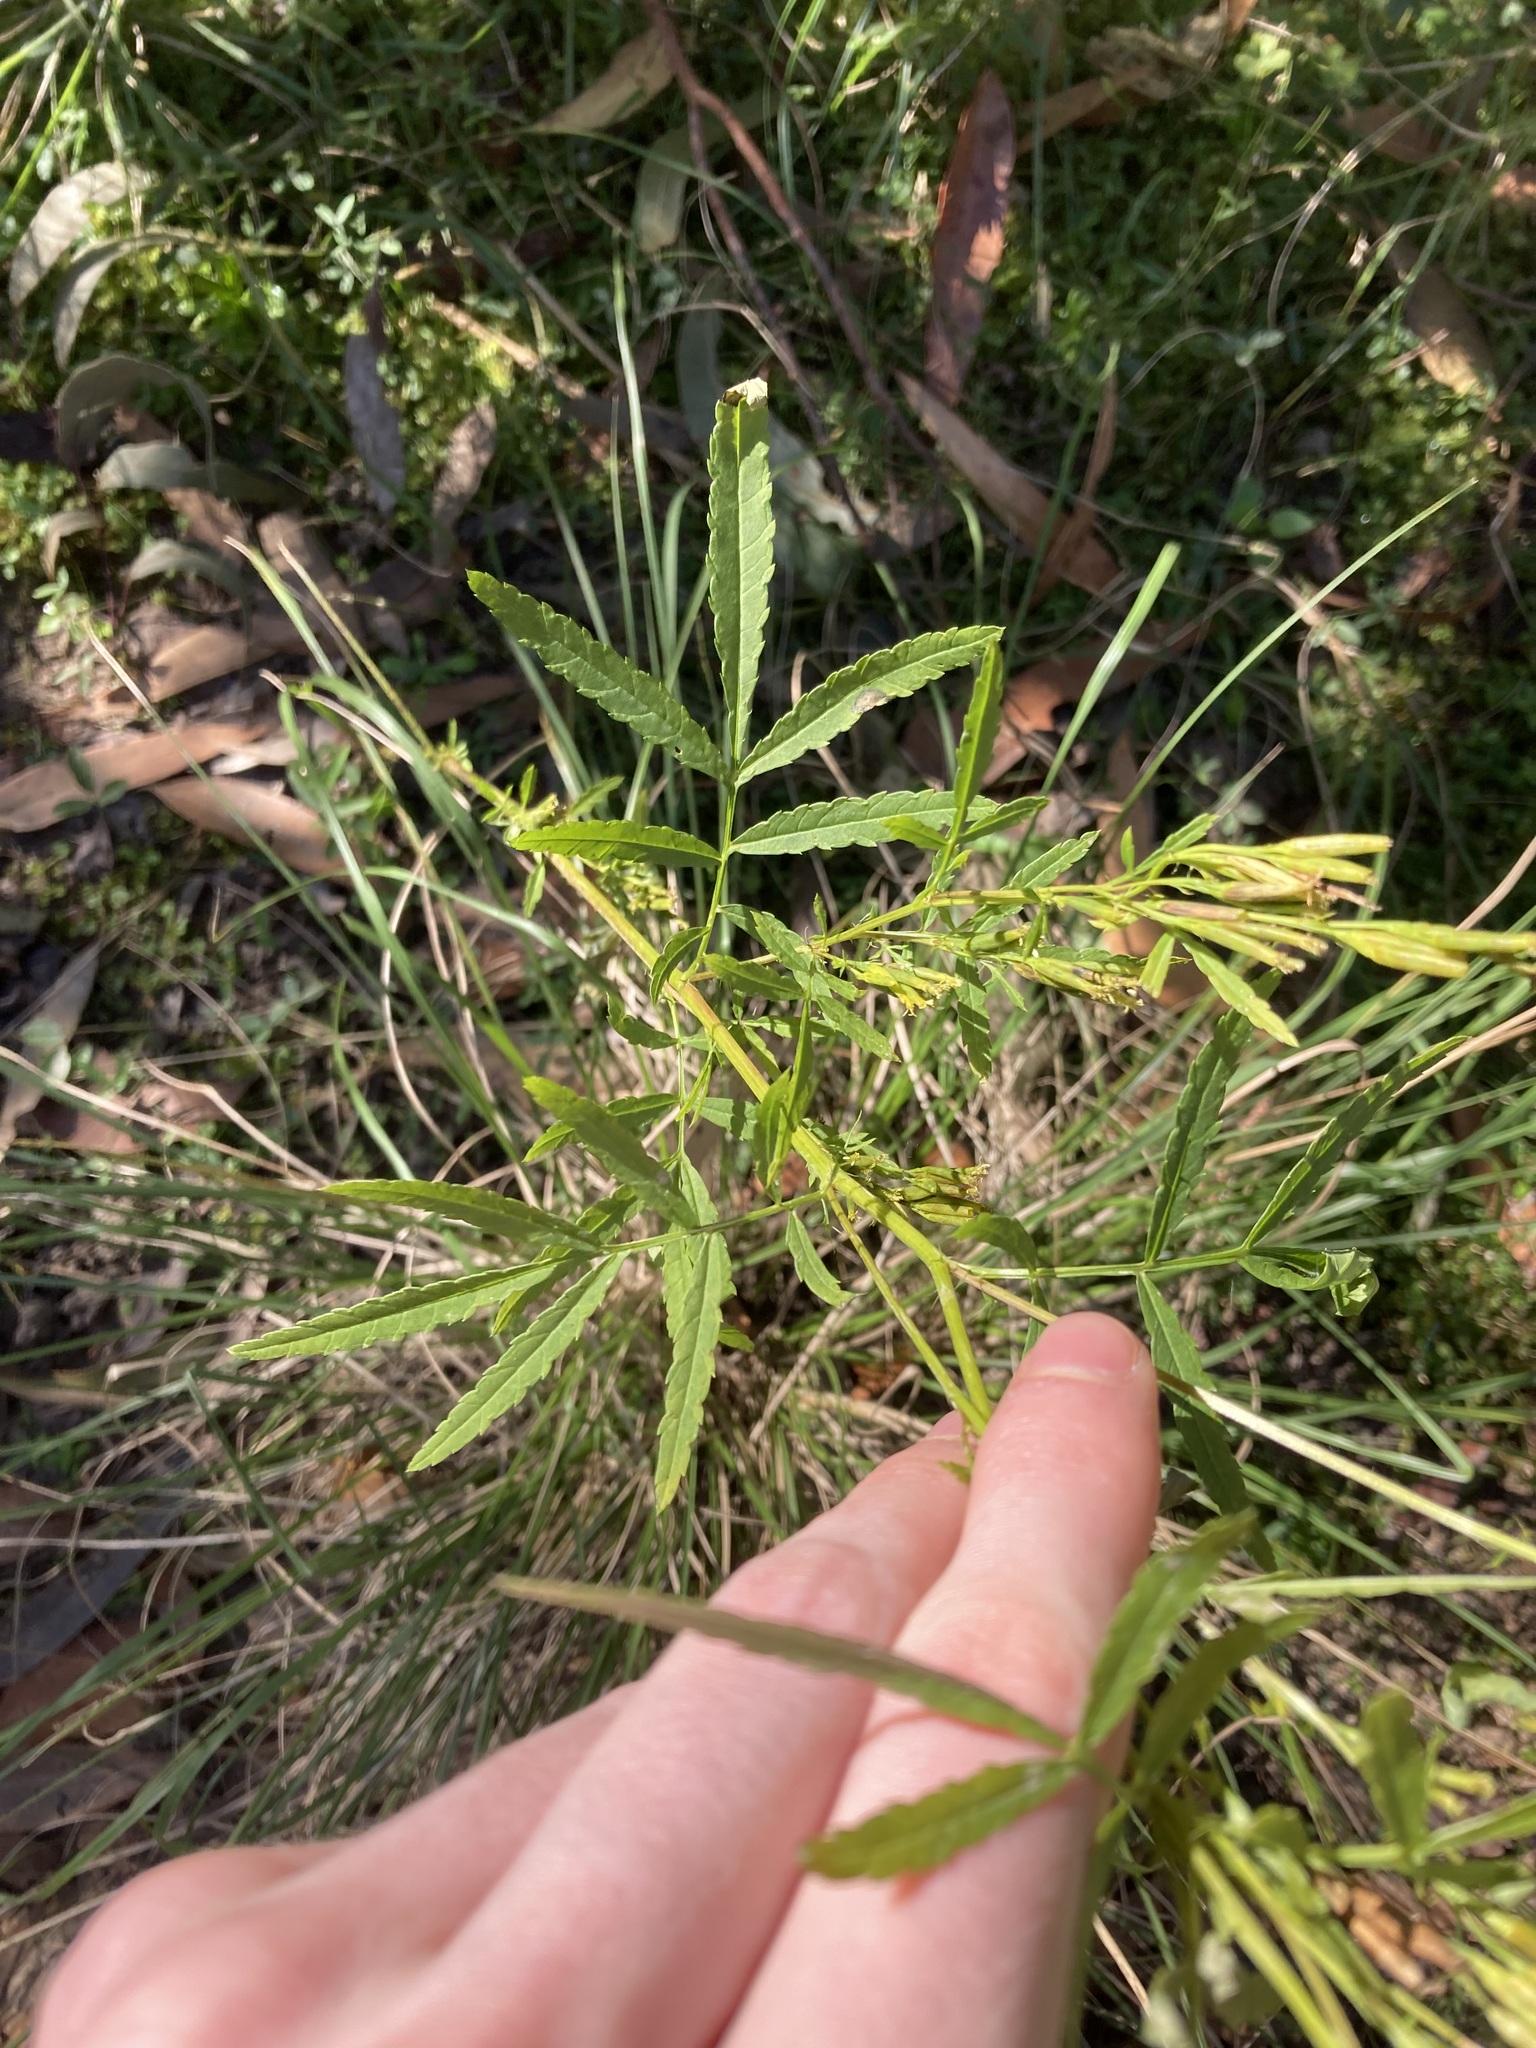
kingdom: Plantae
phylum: Tracheophyta
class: Magnoliopsida
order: Asterales
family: Asteraceae
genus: Tagetes
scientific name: Tagetes minuta
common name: Muster john henry
